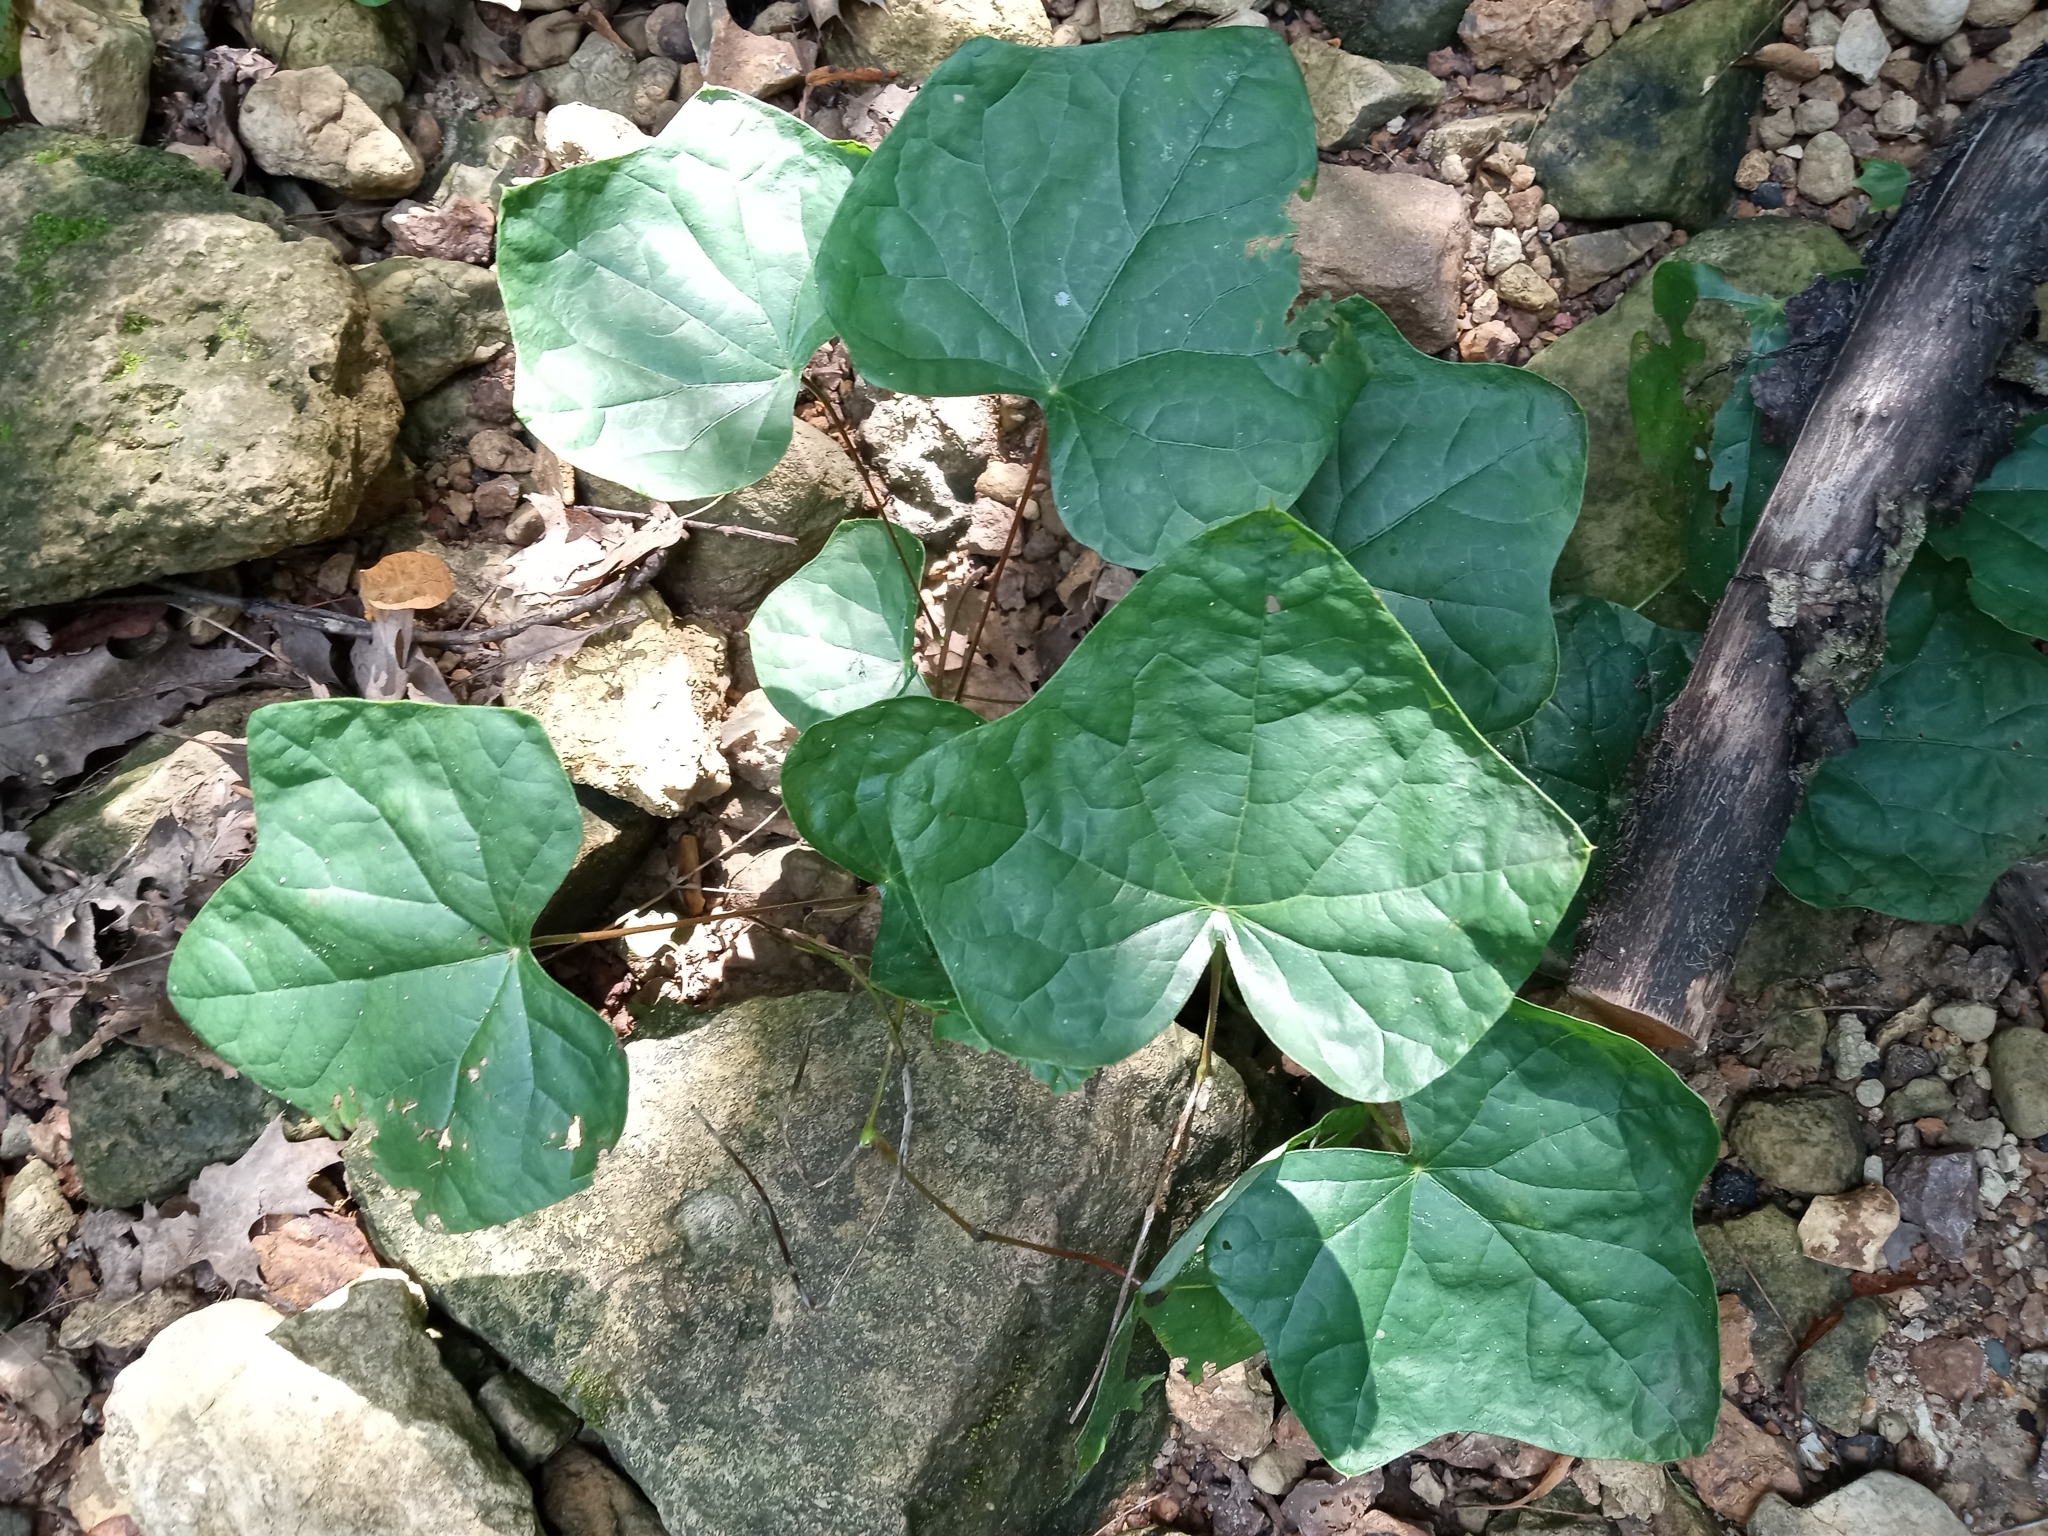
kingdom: Plantae
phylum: Tracheophyta
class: Magnoliopsida
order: Ranunculales
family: Menispermaceae
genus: Menispermum
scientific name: Menispermum canadense
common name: Moonseed
